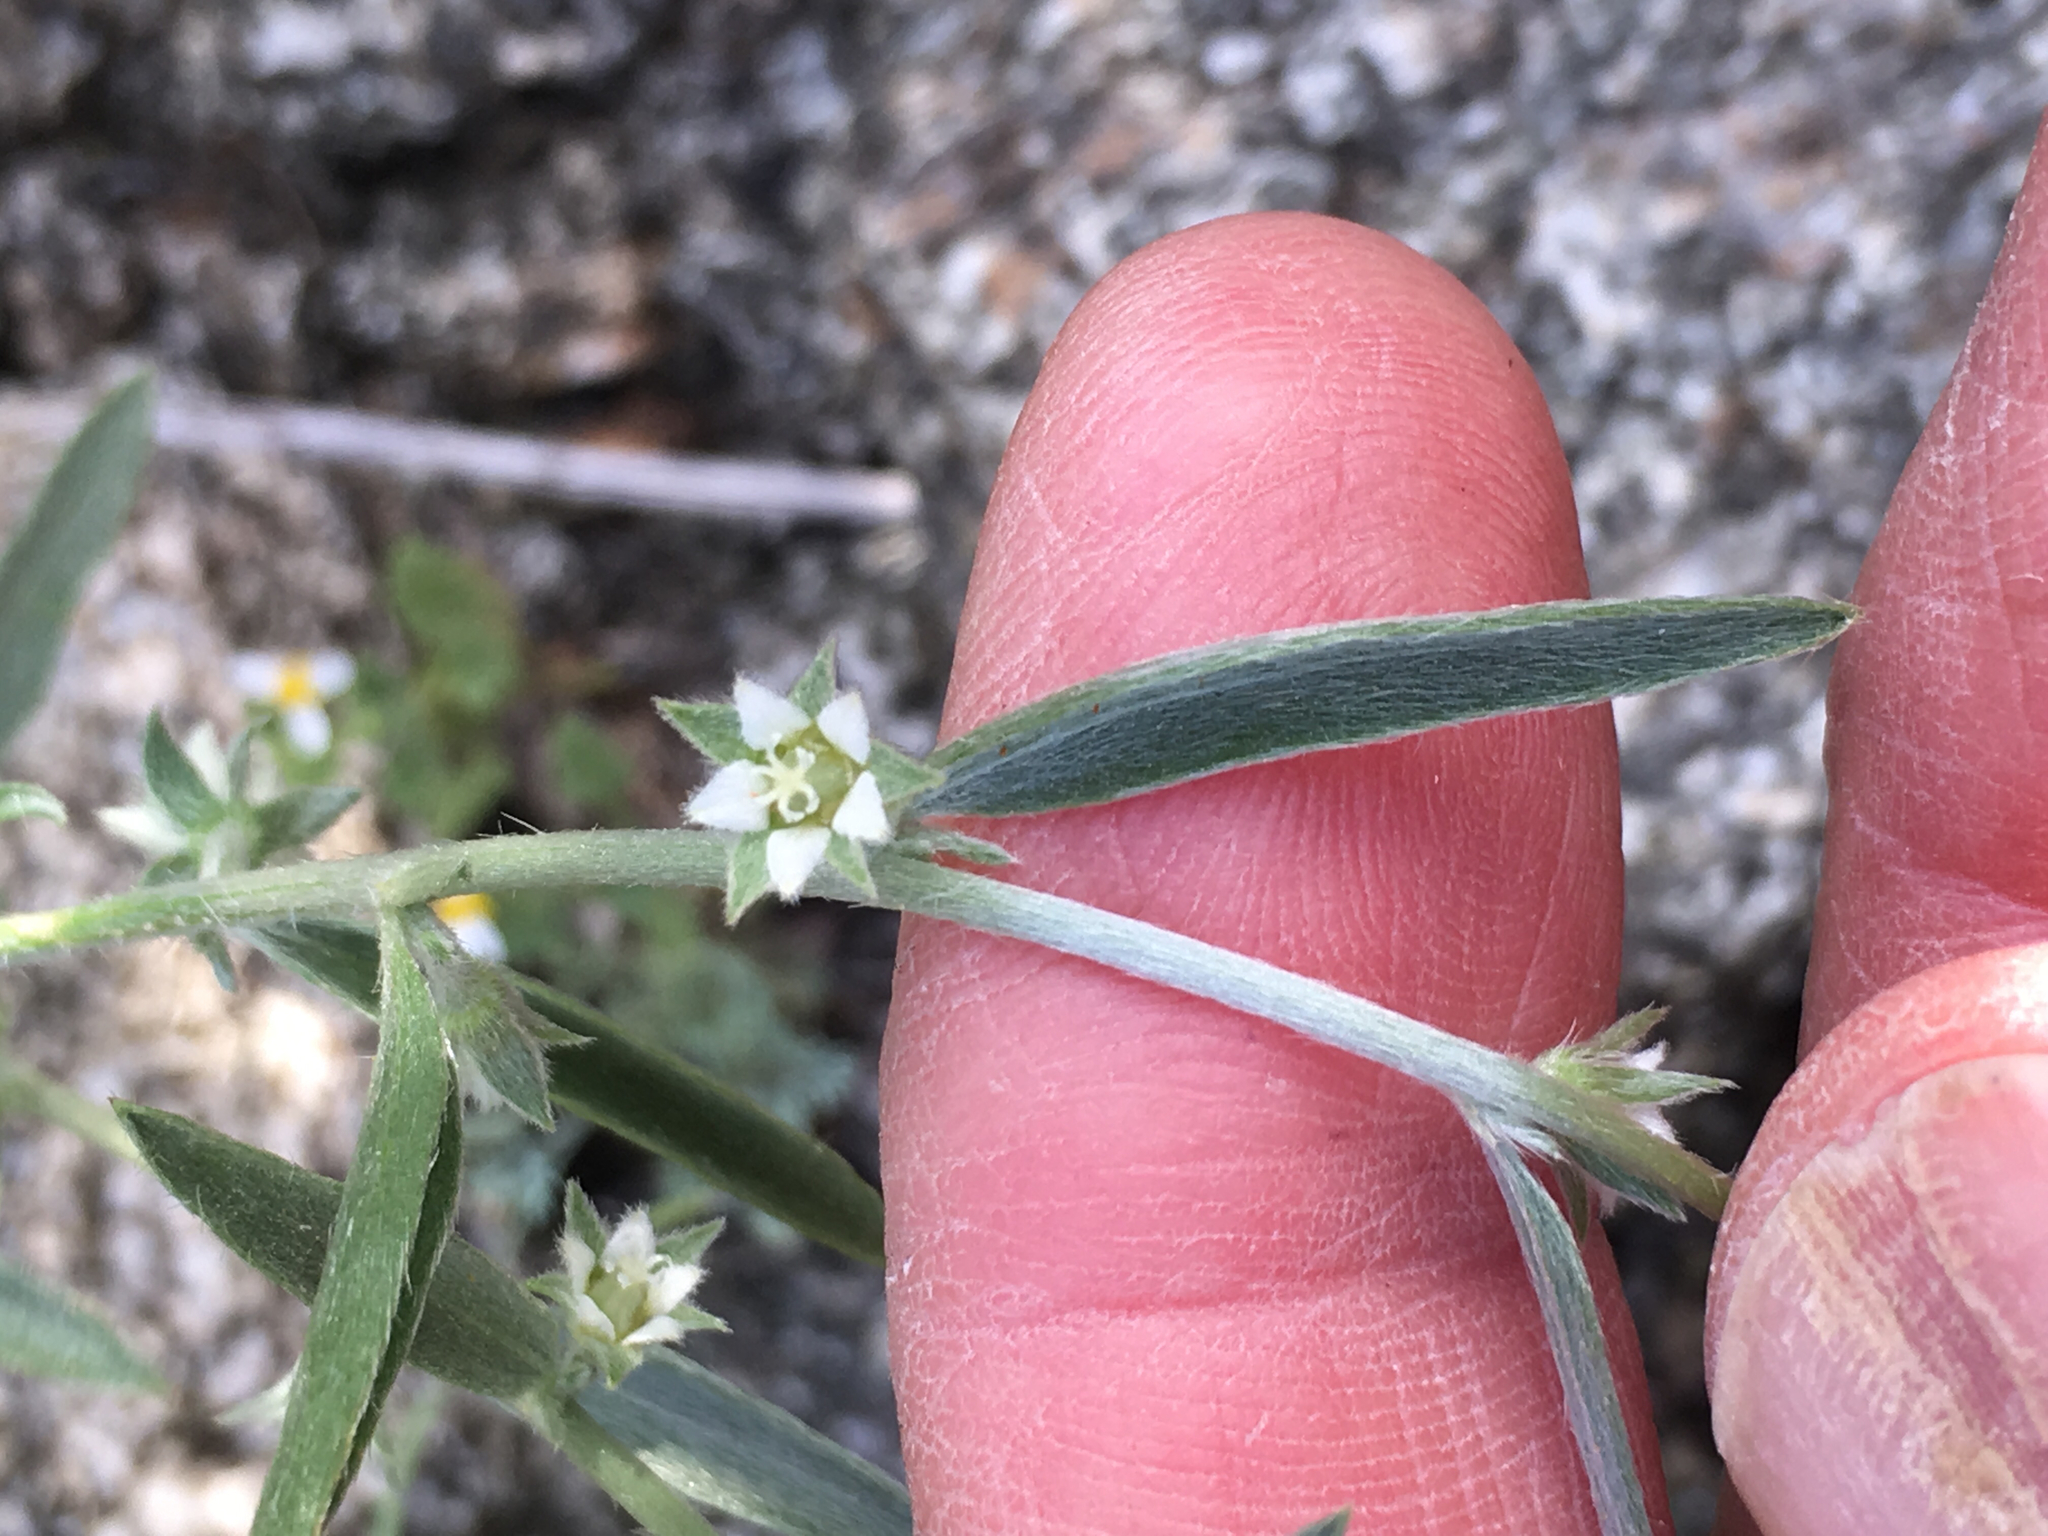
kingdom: Plantae
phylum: Tracheophyta
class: Magnoliopsida
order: Malpighiales
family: Euphorbiaceae
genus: Ditaxis
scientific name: Ditaxis lanceolata
